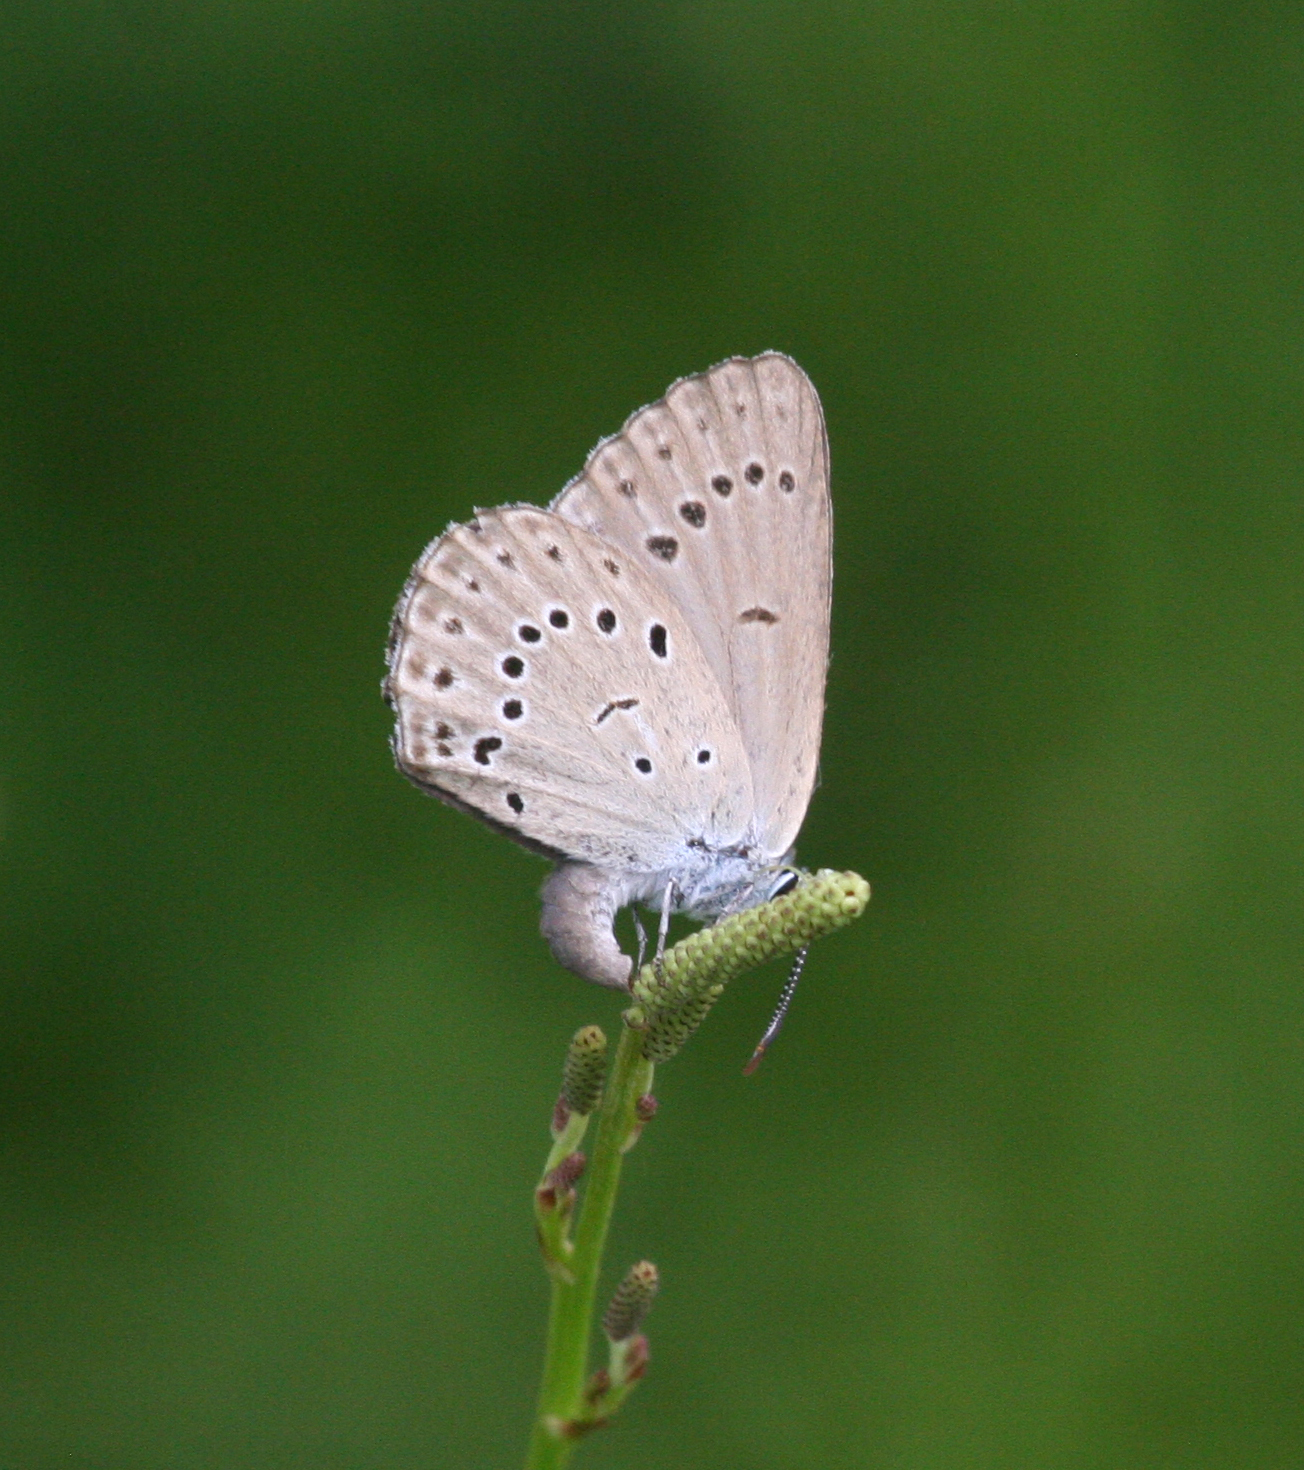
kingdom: Animalia
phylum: Arthropoda
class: Insecta
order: Lepidoptera
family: Lycaenidae
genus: Phengaris
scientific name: Phengaris teleius
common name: Scarce large blue
